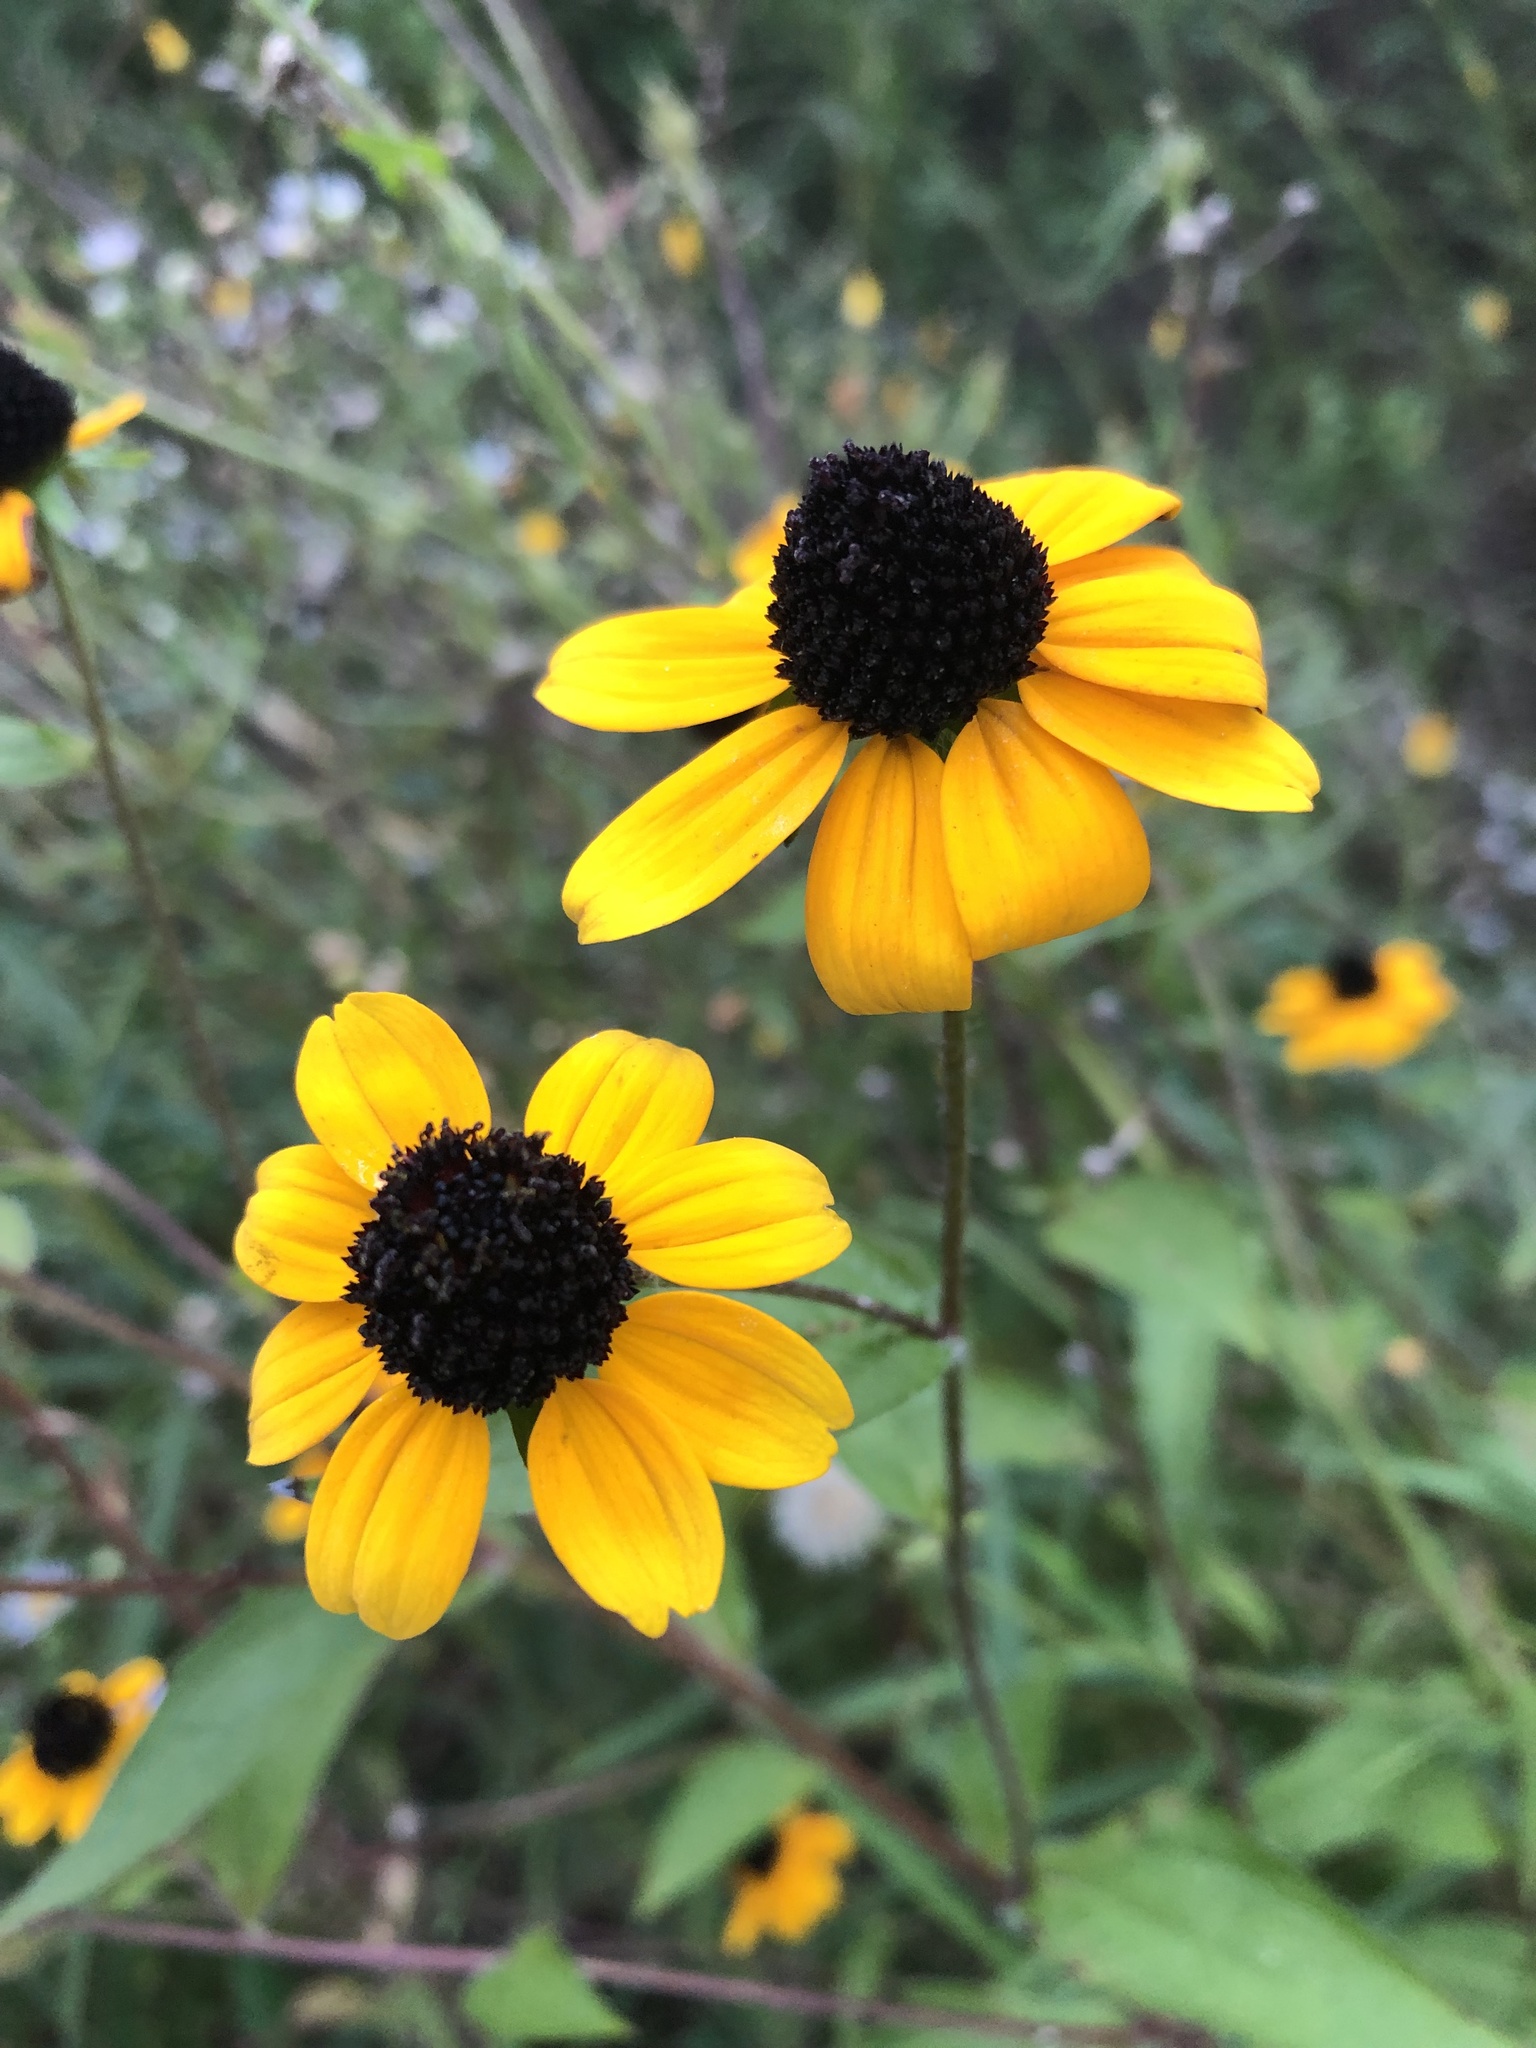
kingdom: Plantae
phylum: Tracheophyta
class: Magnoliopsida
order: Asterales
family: Asteraceae
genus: Rudbeckia
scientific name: Rudbeckia triloba
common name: Thin-leaved coneflower
